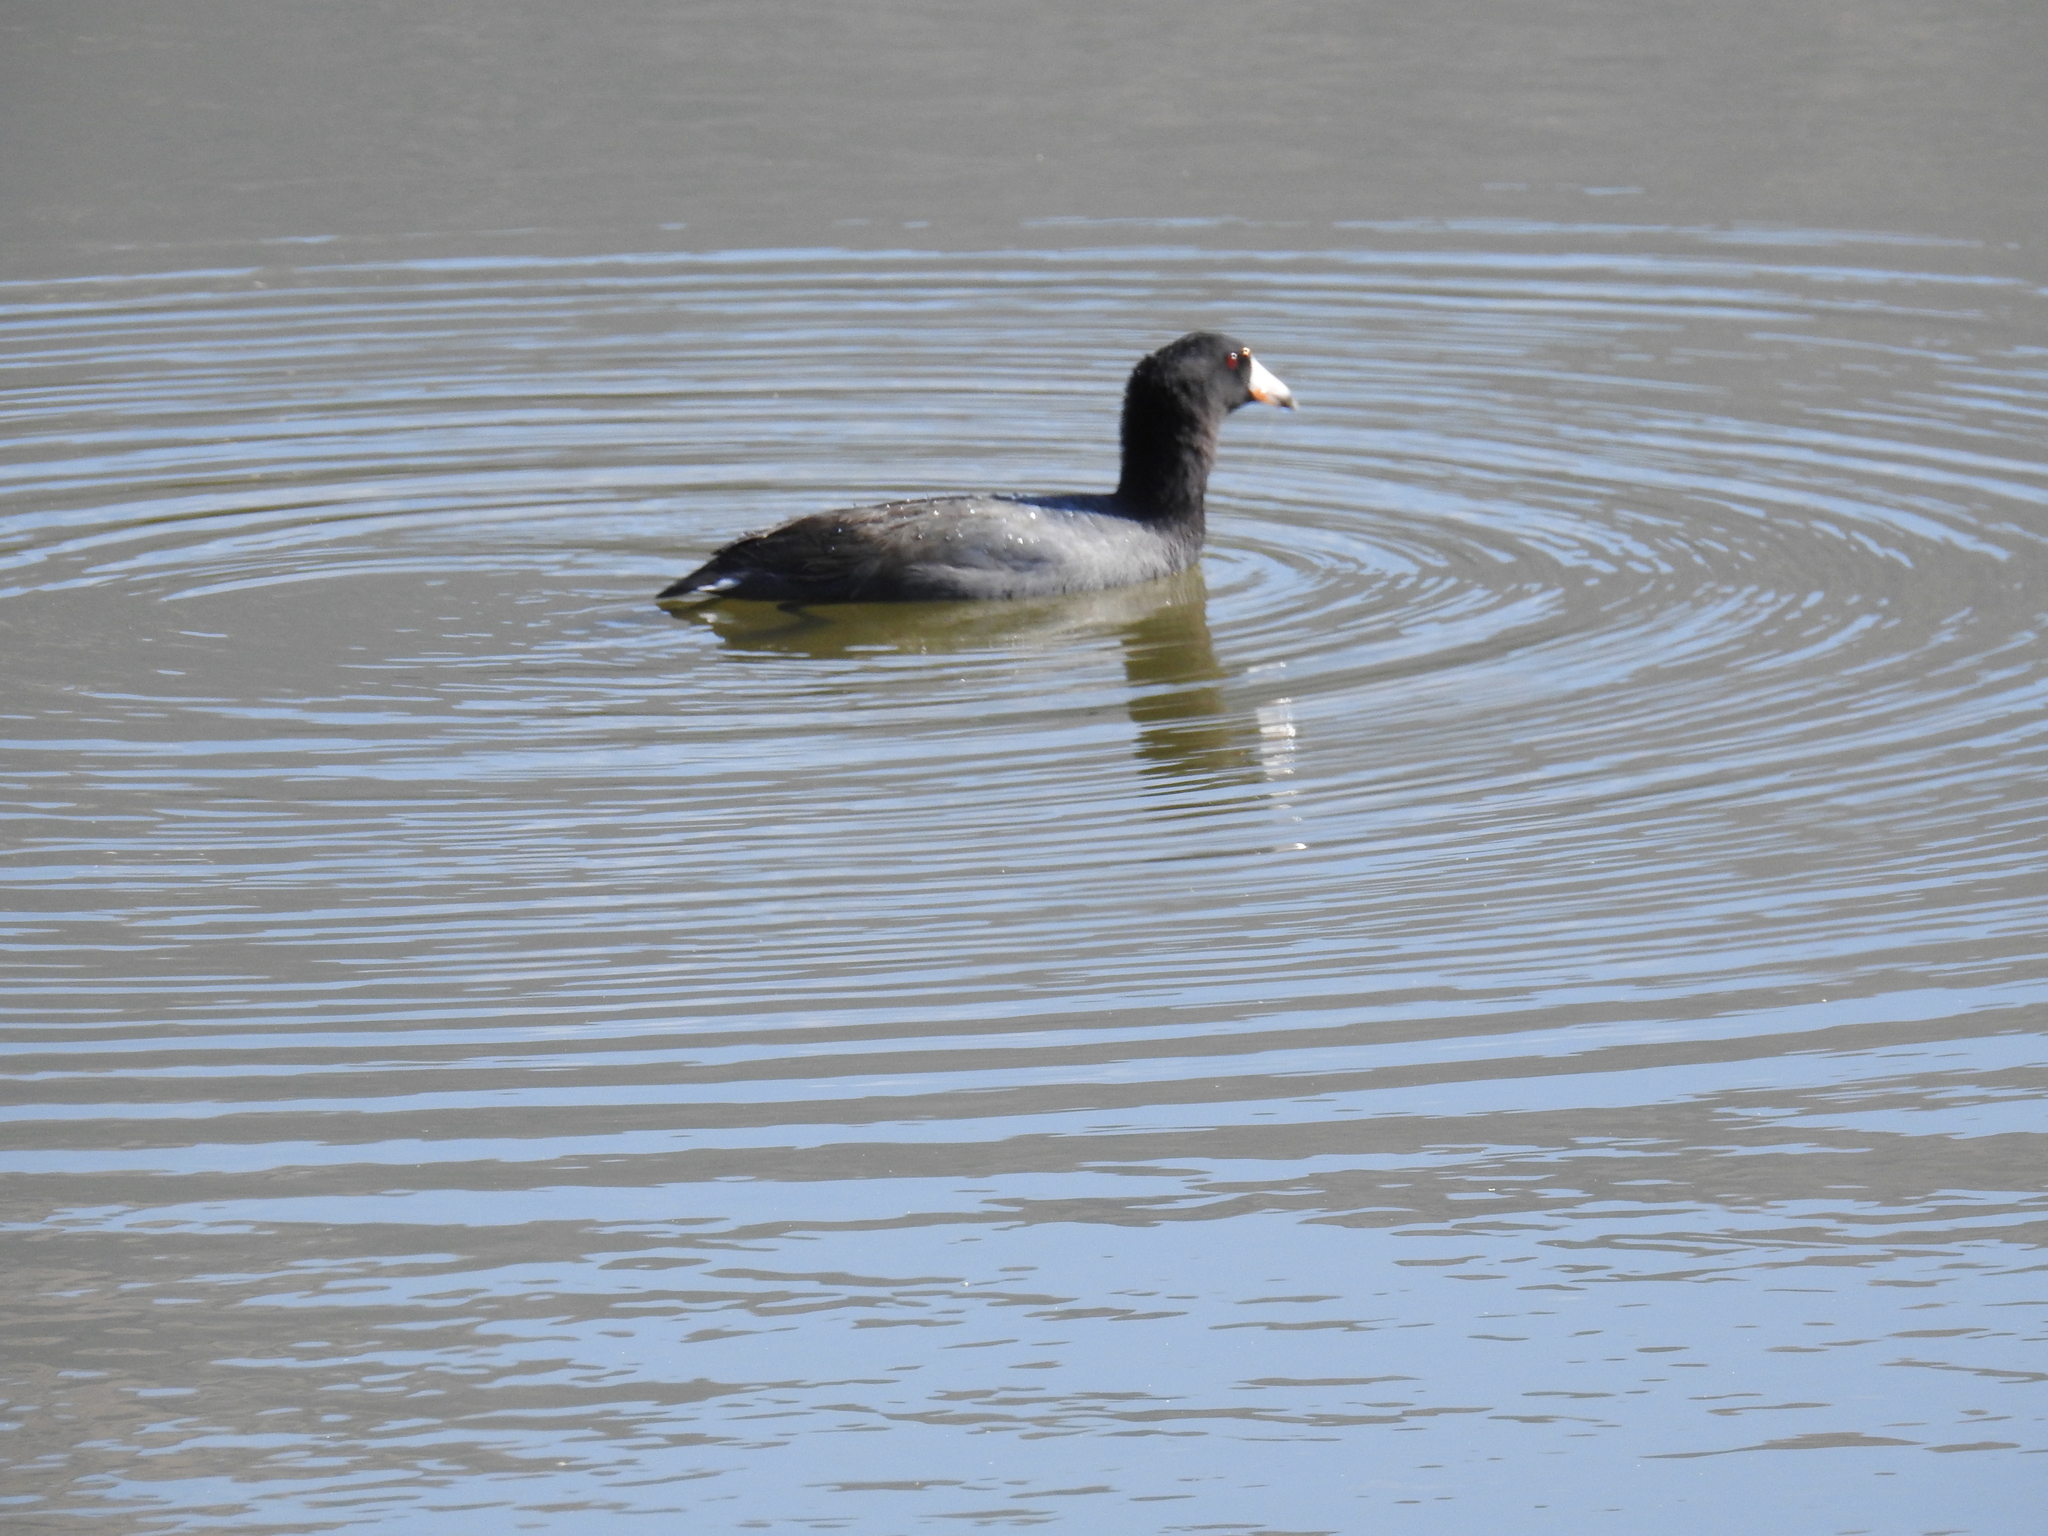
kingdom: Animalia
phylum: Chordata
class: Aves
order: Gruiformes
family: Rallidae
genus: Fulica
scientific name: Fulica americana
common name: American coot
